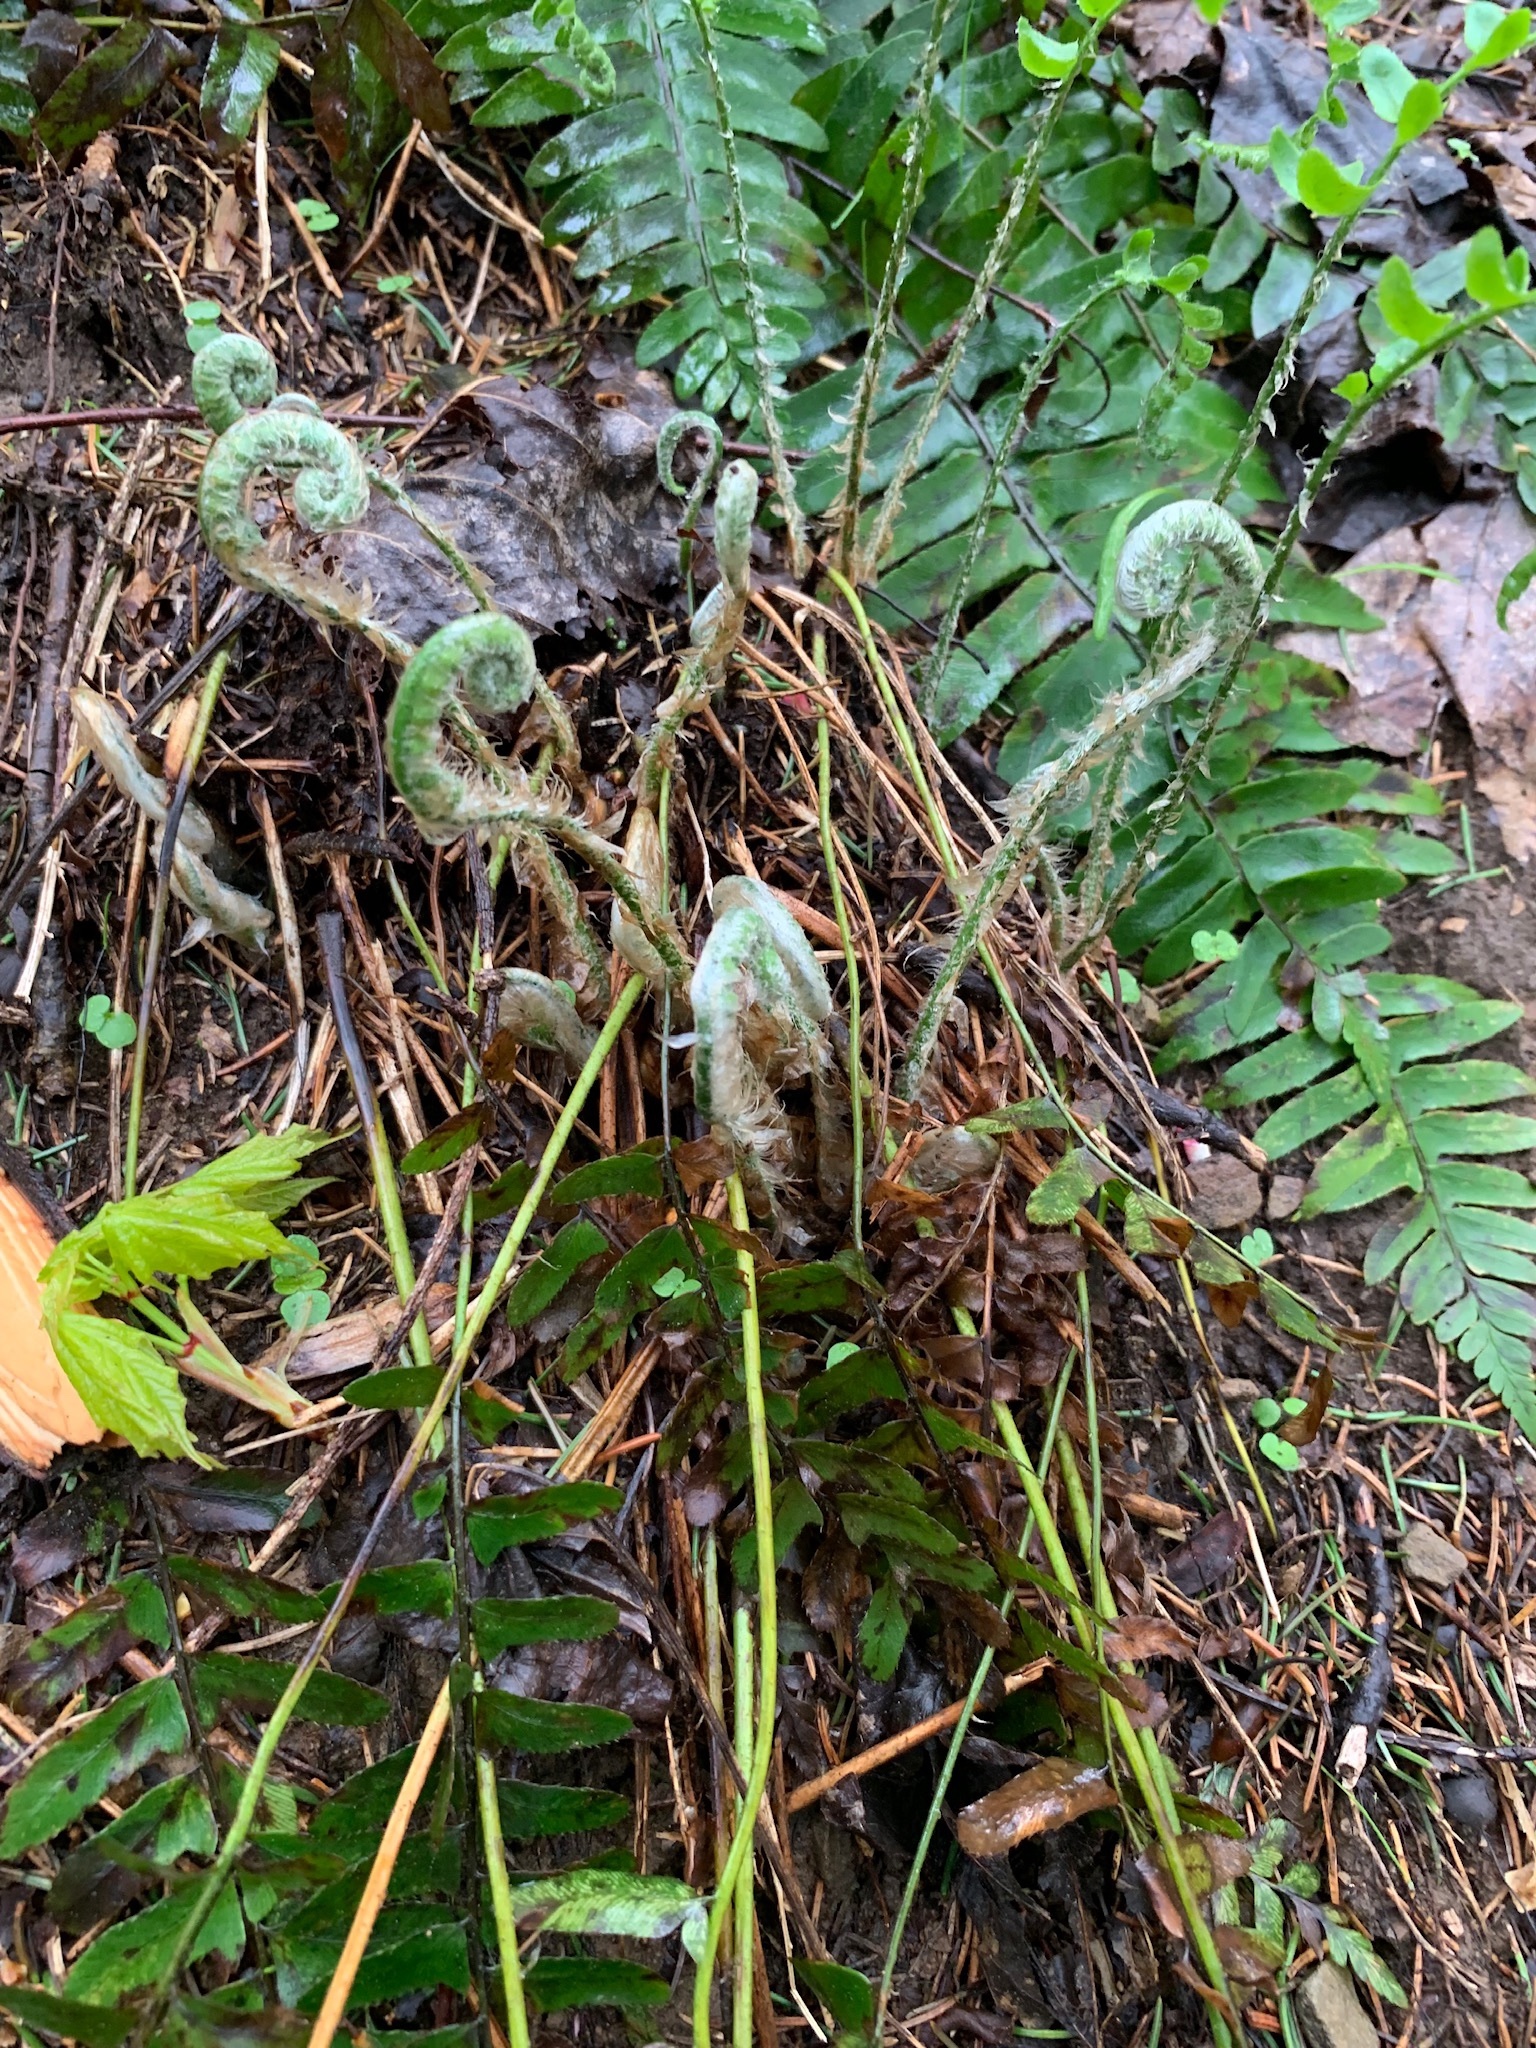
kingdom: Plantae
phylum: Tracheophyta
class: Polypodiopsida
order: Polypodiales
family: Dryopteridaceae
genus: Polystichum
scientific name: Polystichum acrostichoides
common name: Christmas fern
